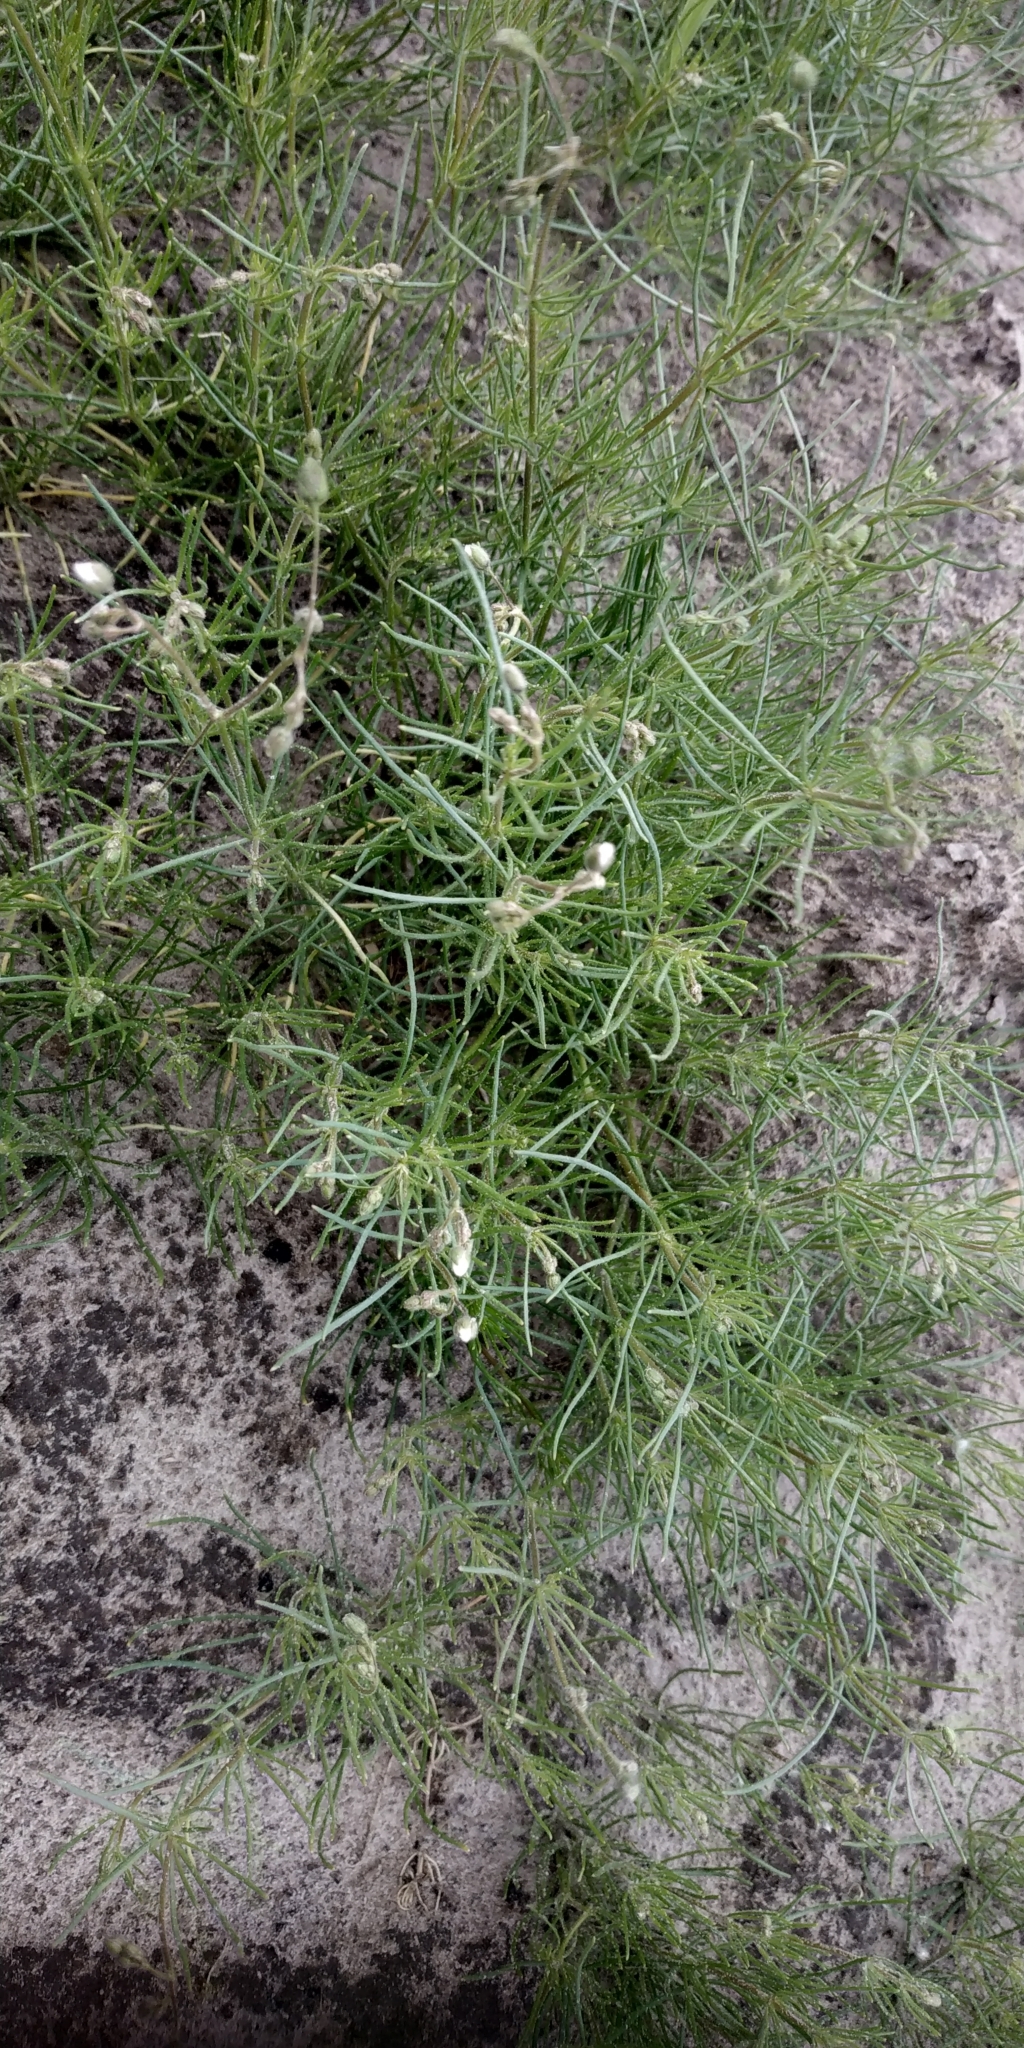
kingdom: Plantae
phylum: Tracheophyta
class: Magnoliopsida
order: Caryophyllales
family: Caryophyllaceae
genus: Spergula
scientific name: Spergula arvensis
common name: Corn spurrey
